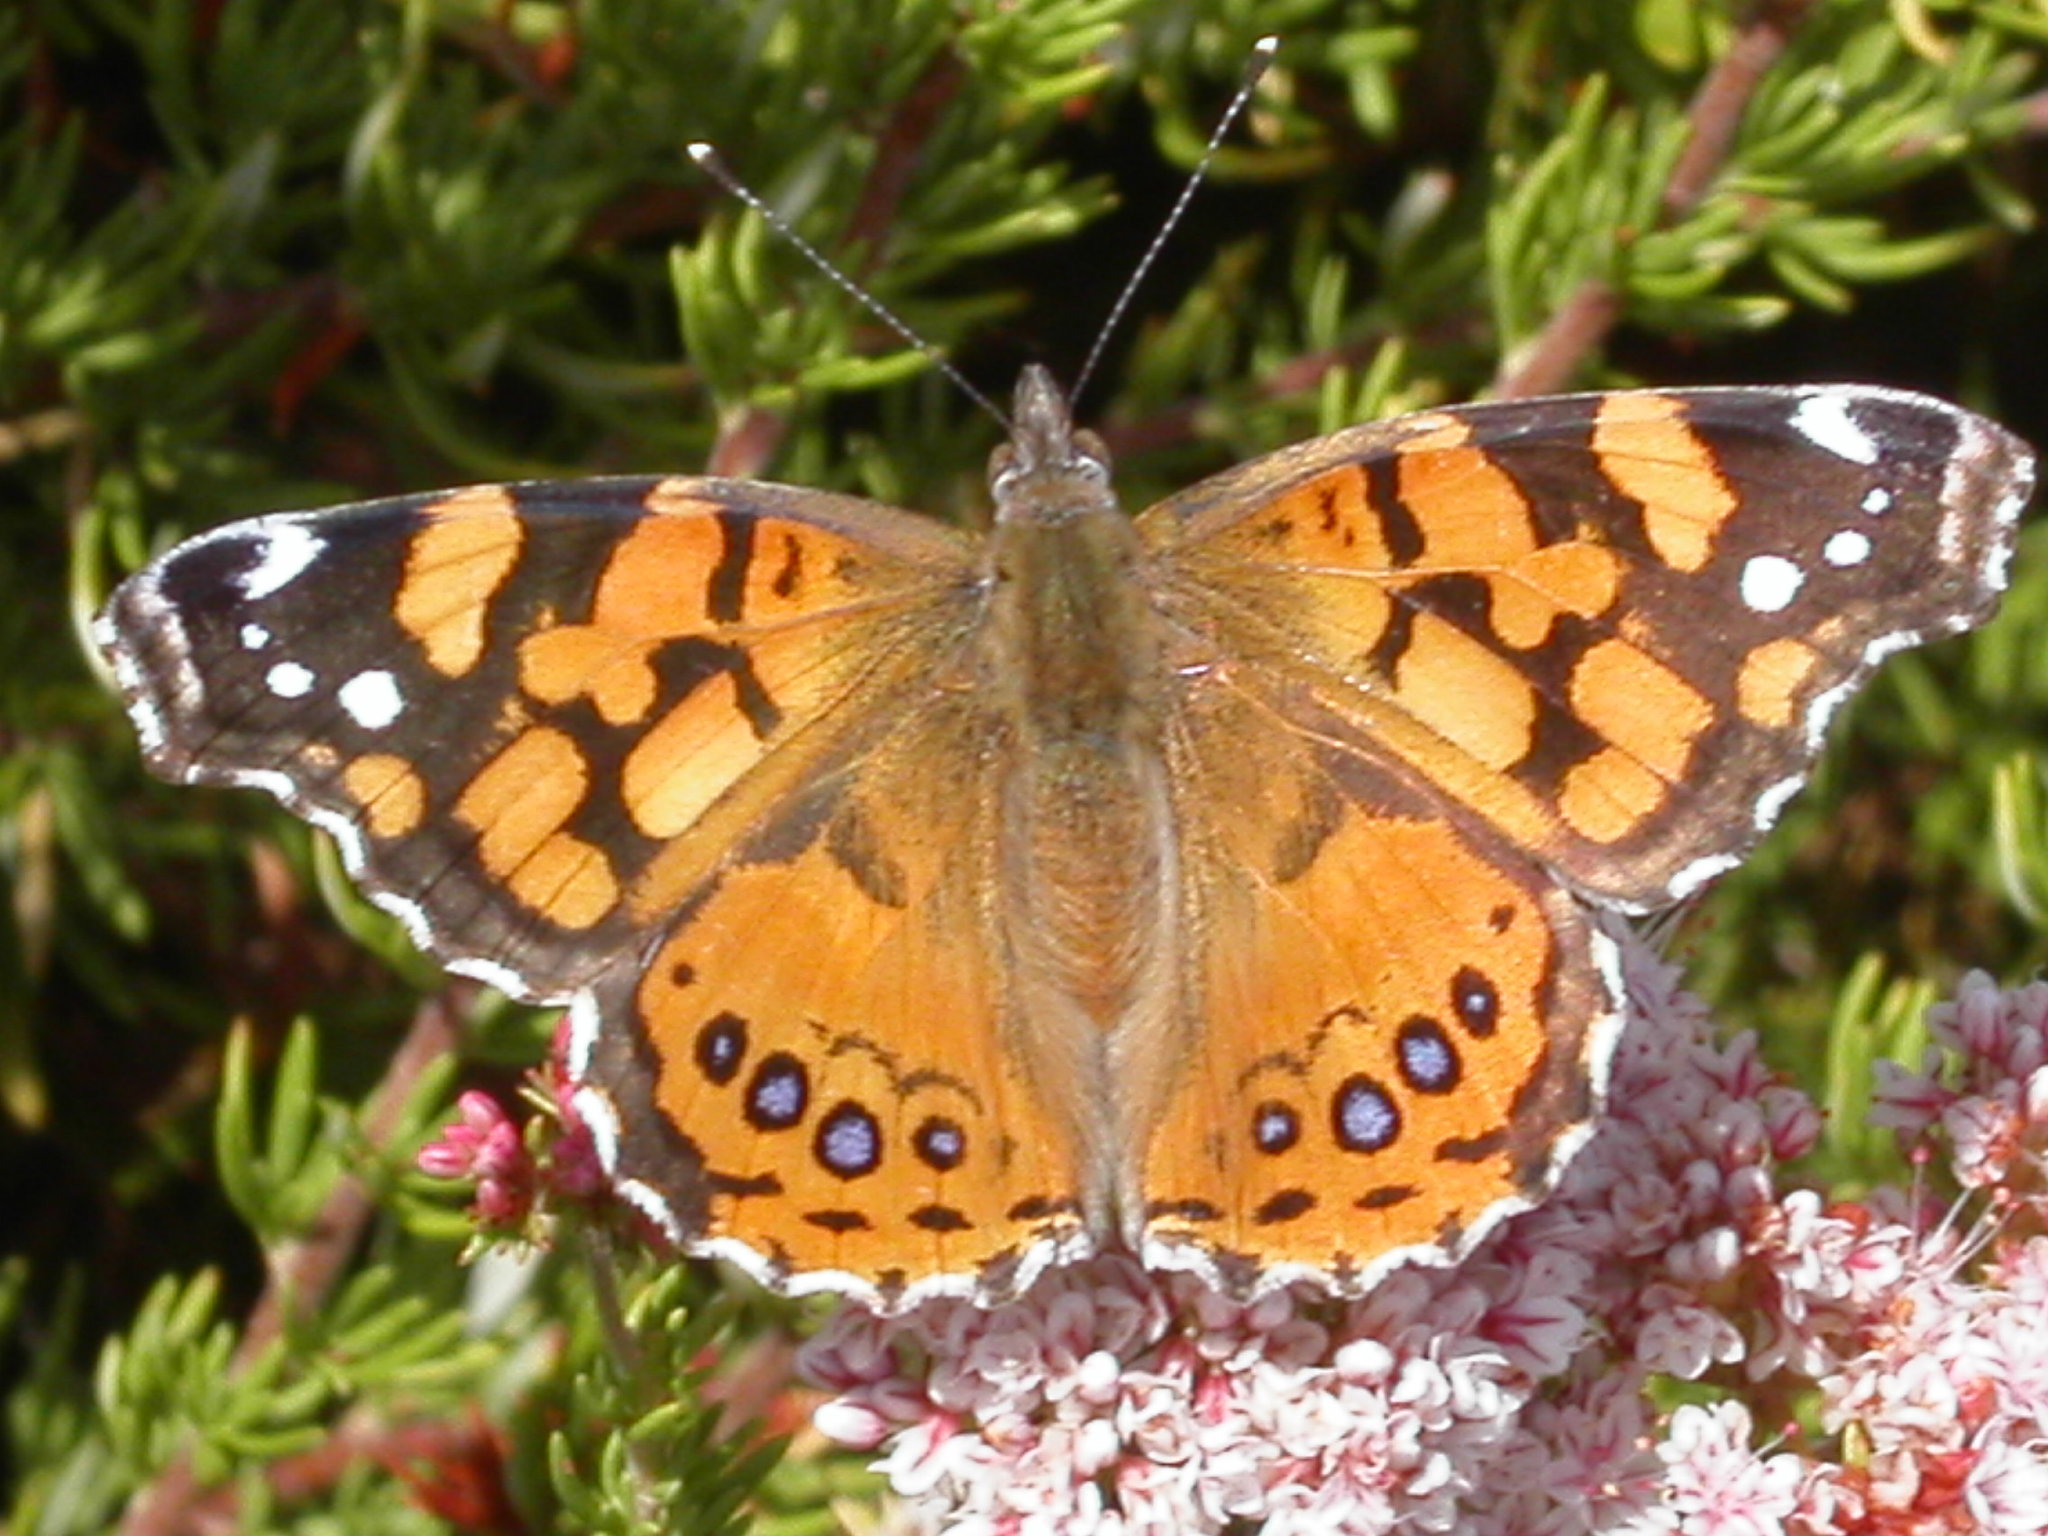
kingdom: Animalia
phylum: Arthropoda
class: Insecta
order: Lepidoptera
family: Nymphalidae
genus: Vanessa
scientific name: Vanessa annabella
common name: West coast lady
